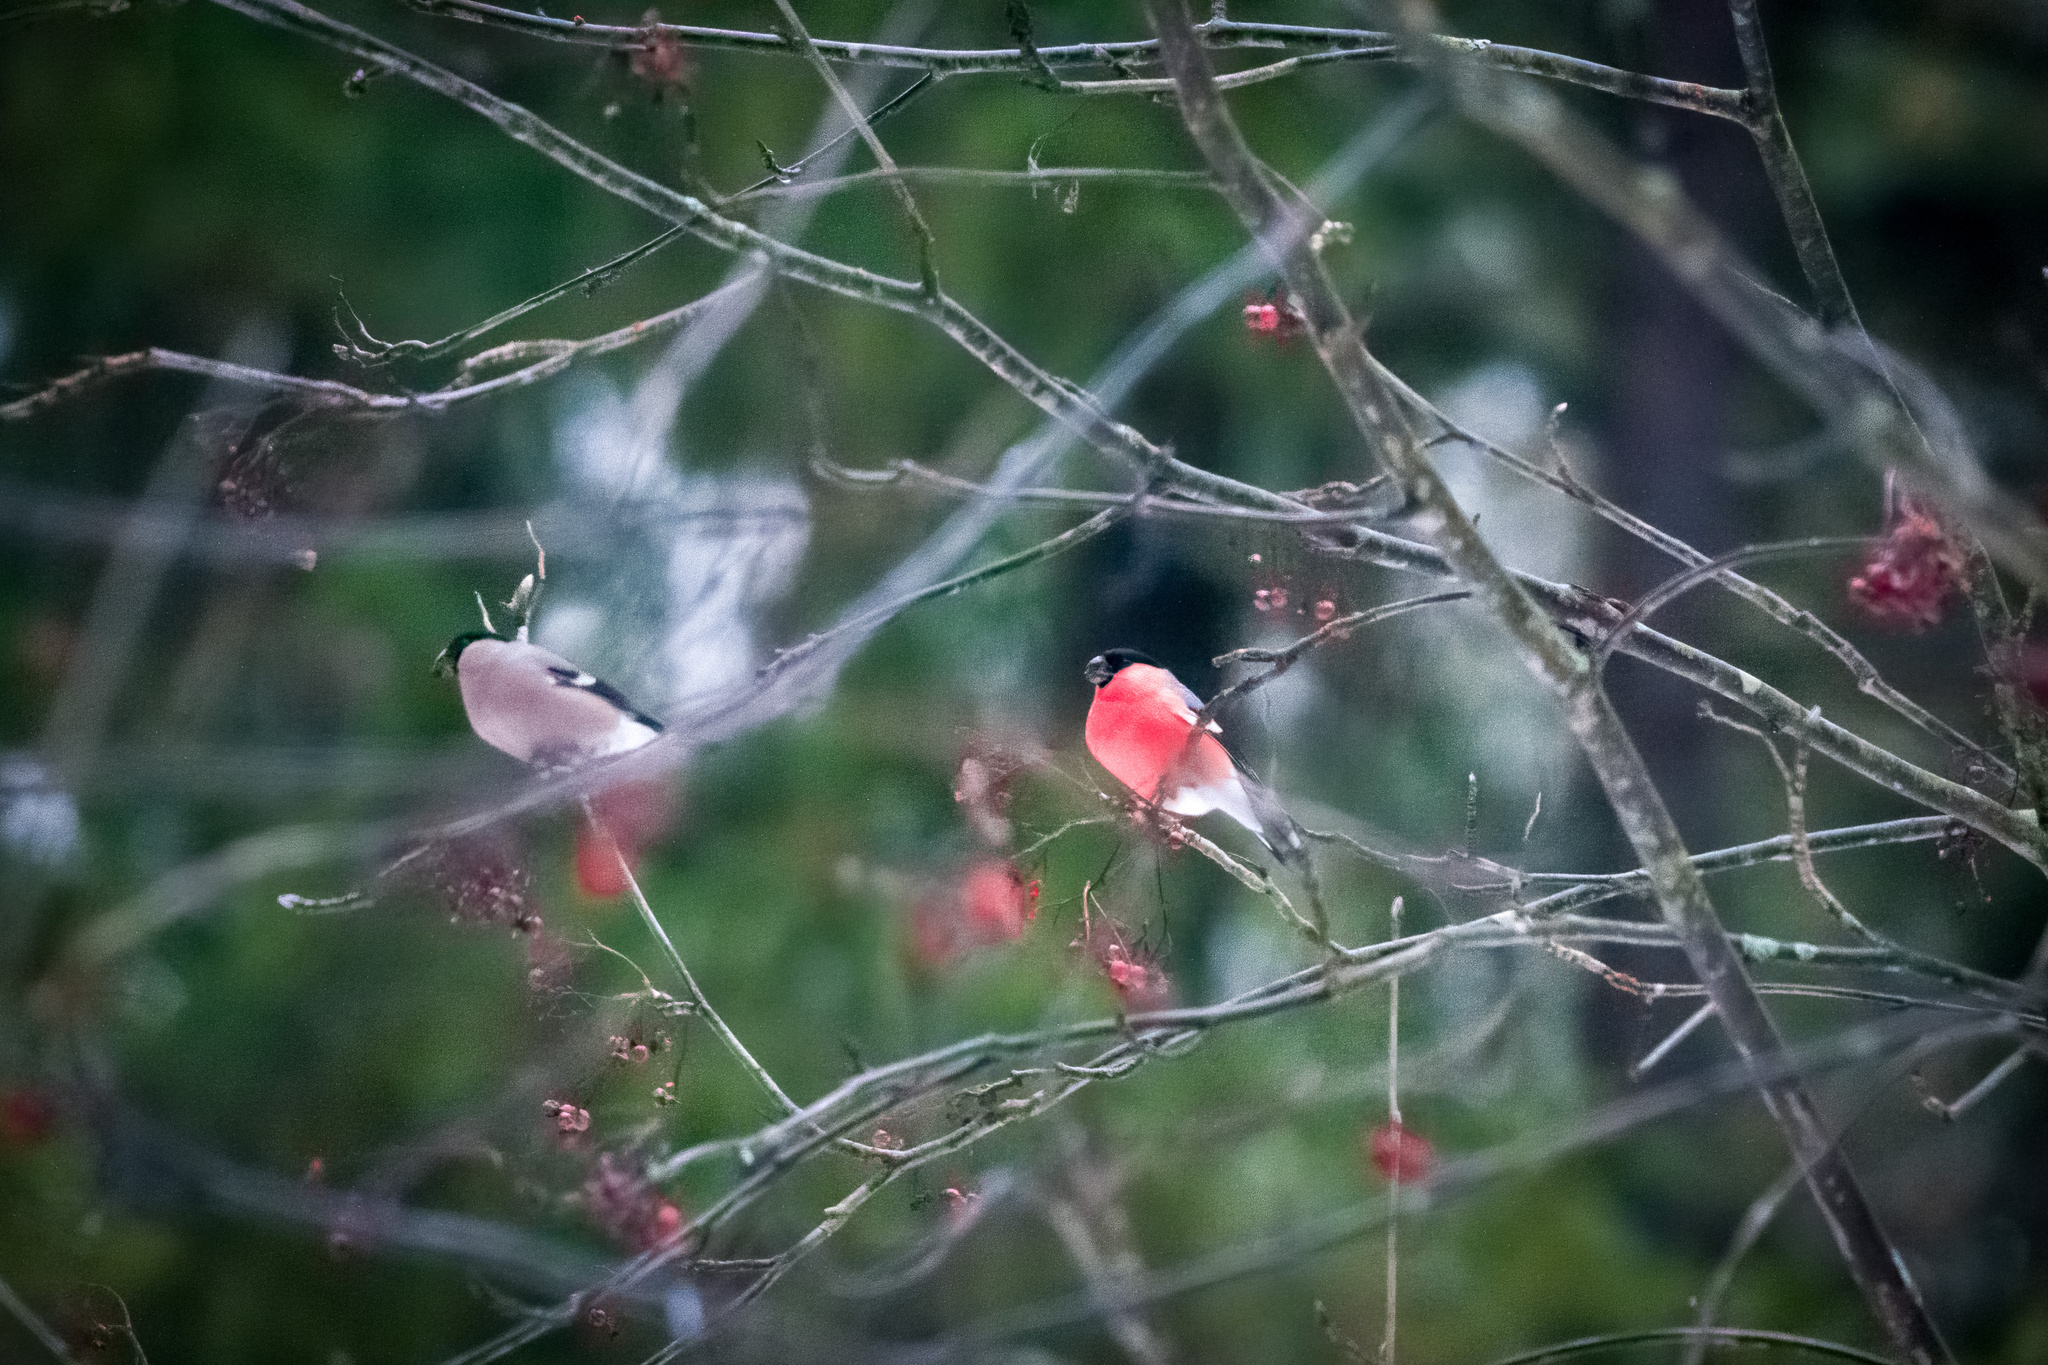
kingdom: Animalia
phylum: Chordata
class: Aves
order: Passeriformes
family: Fringillidae
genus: Pyrrhula
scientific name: Pyrrhula pyrrhula
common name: Eurasian bullfinch
